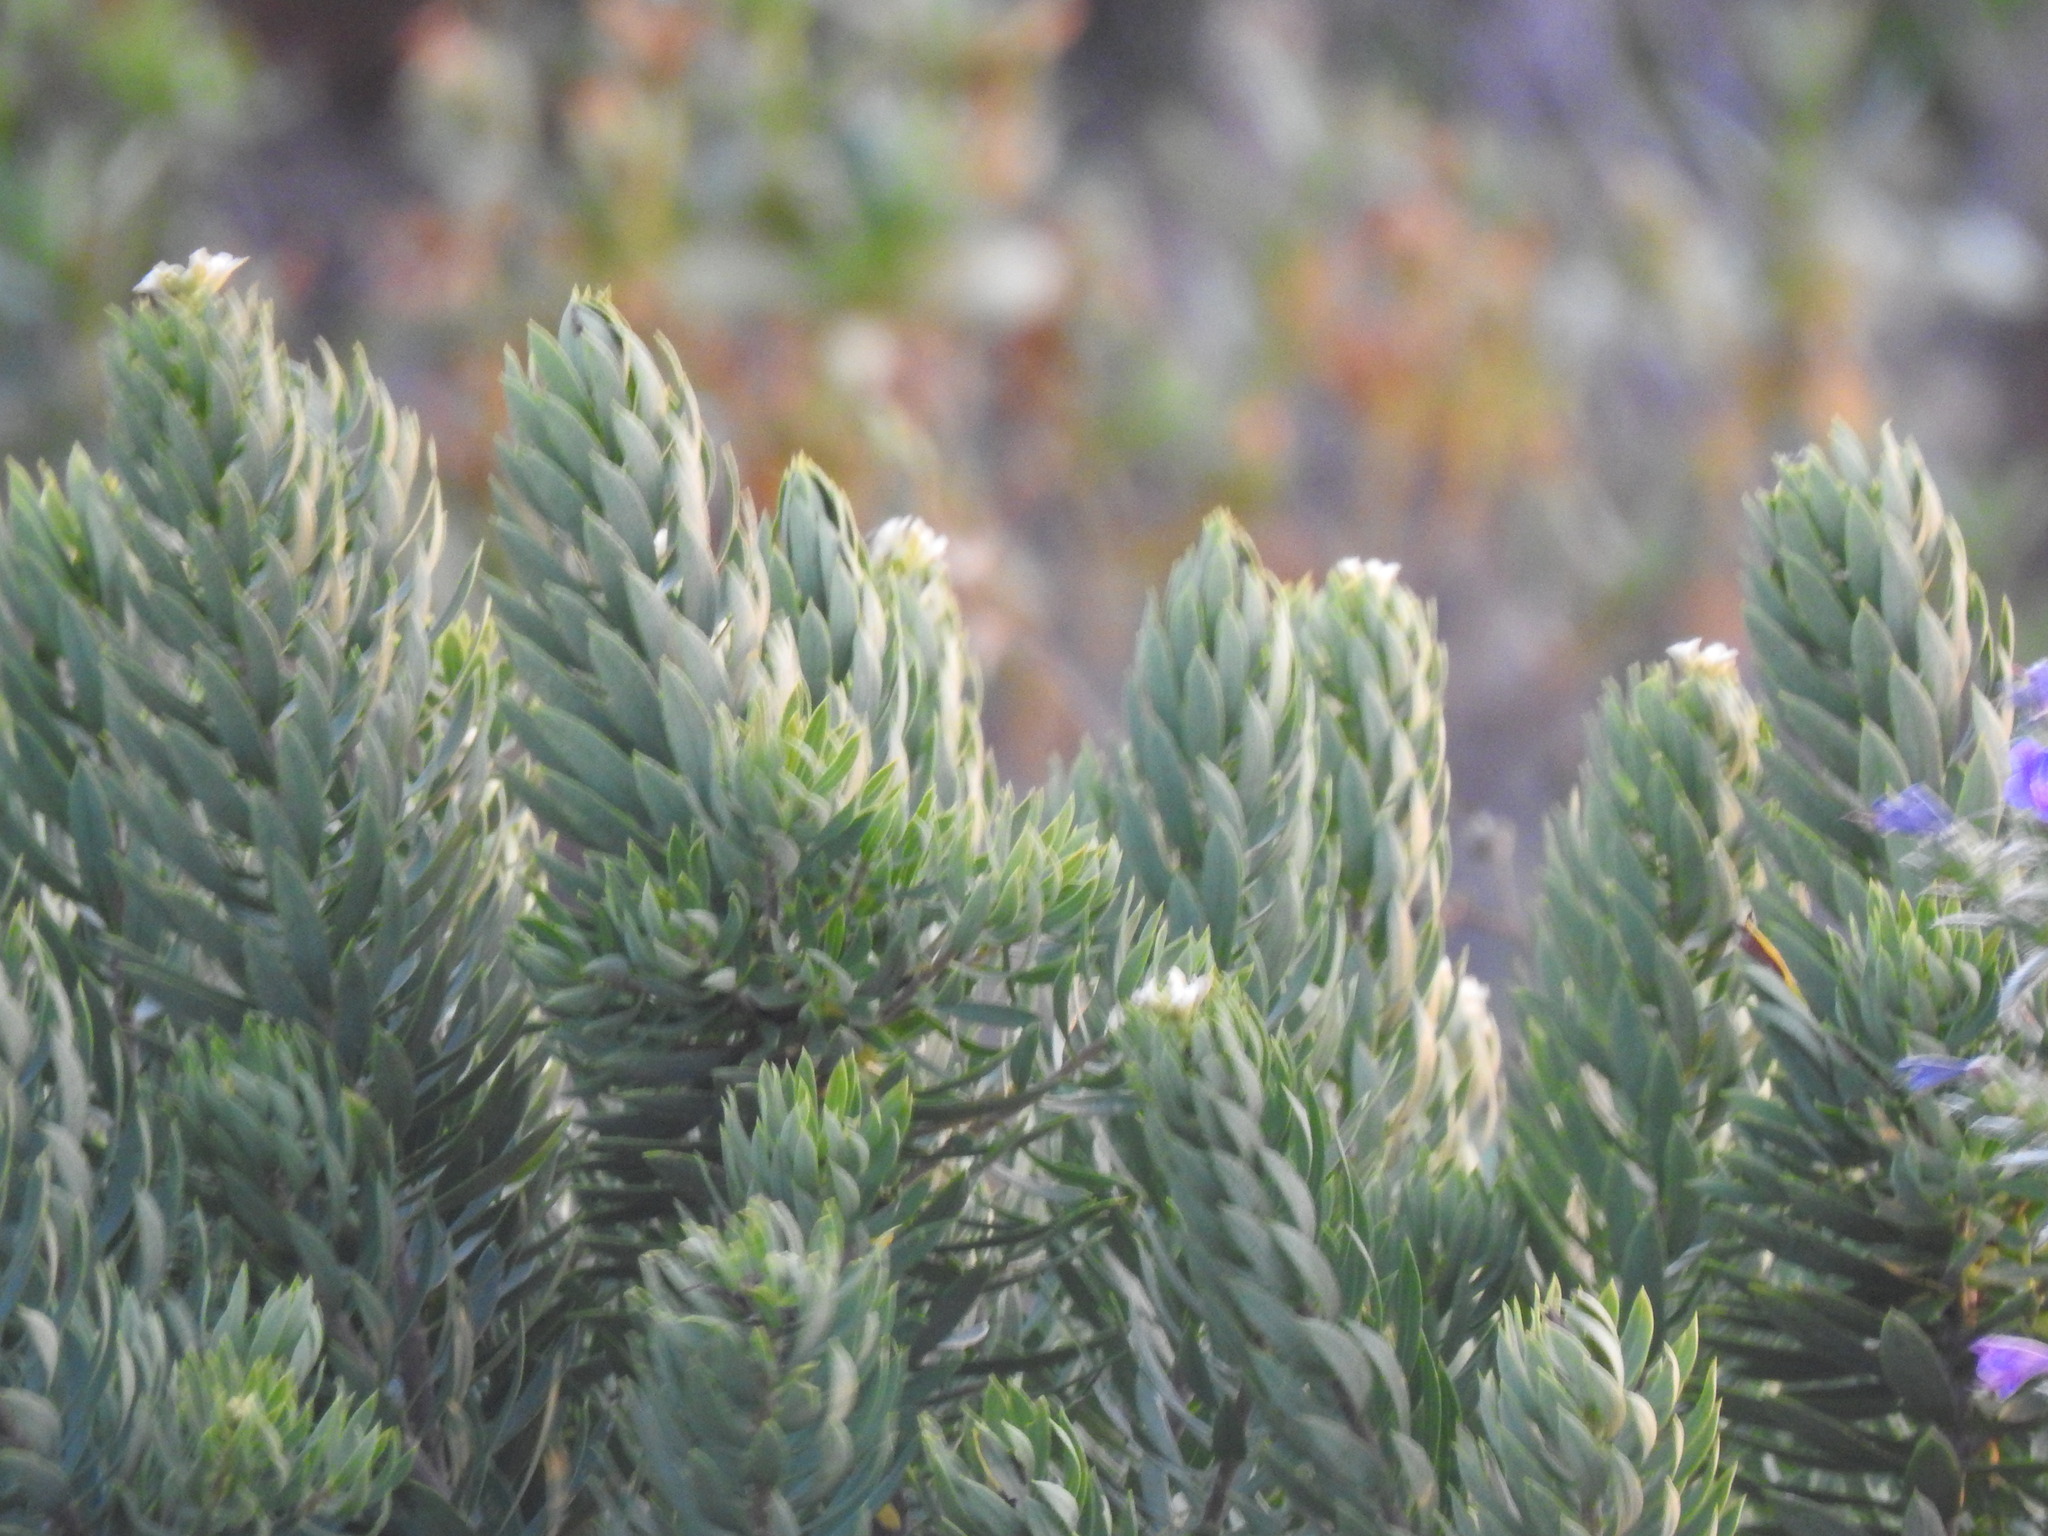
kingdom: Plantae
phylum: Tracheophyta
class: Magnoliopsida
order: Malvales
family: Thymelaeaceae
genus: Daphne
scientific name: Daphne gnidium
